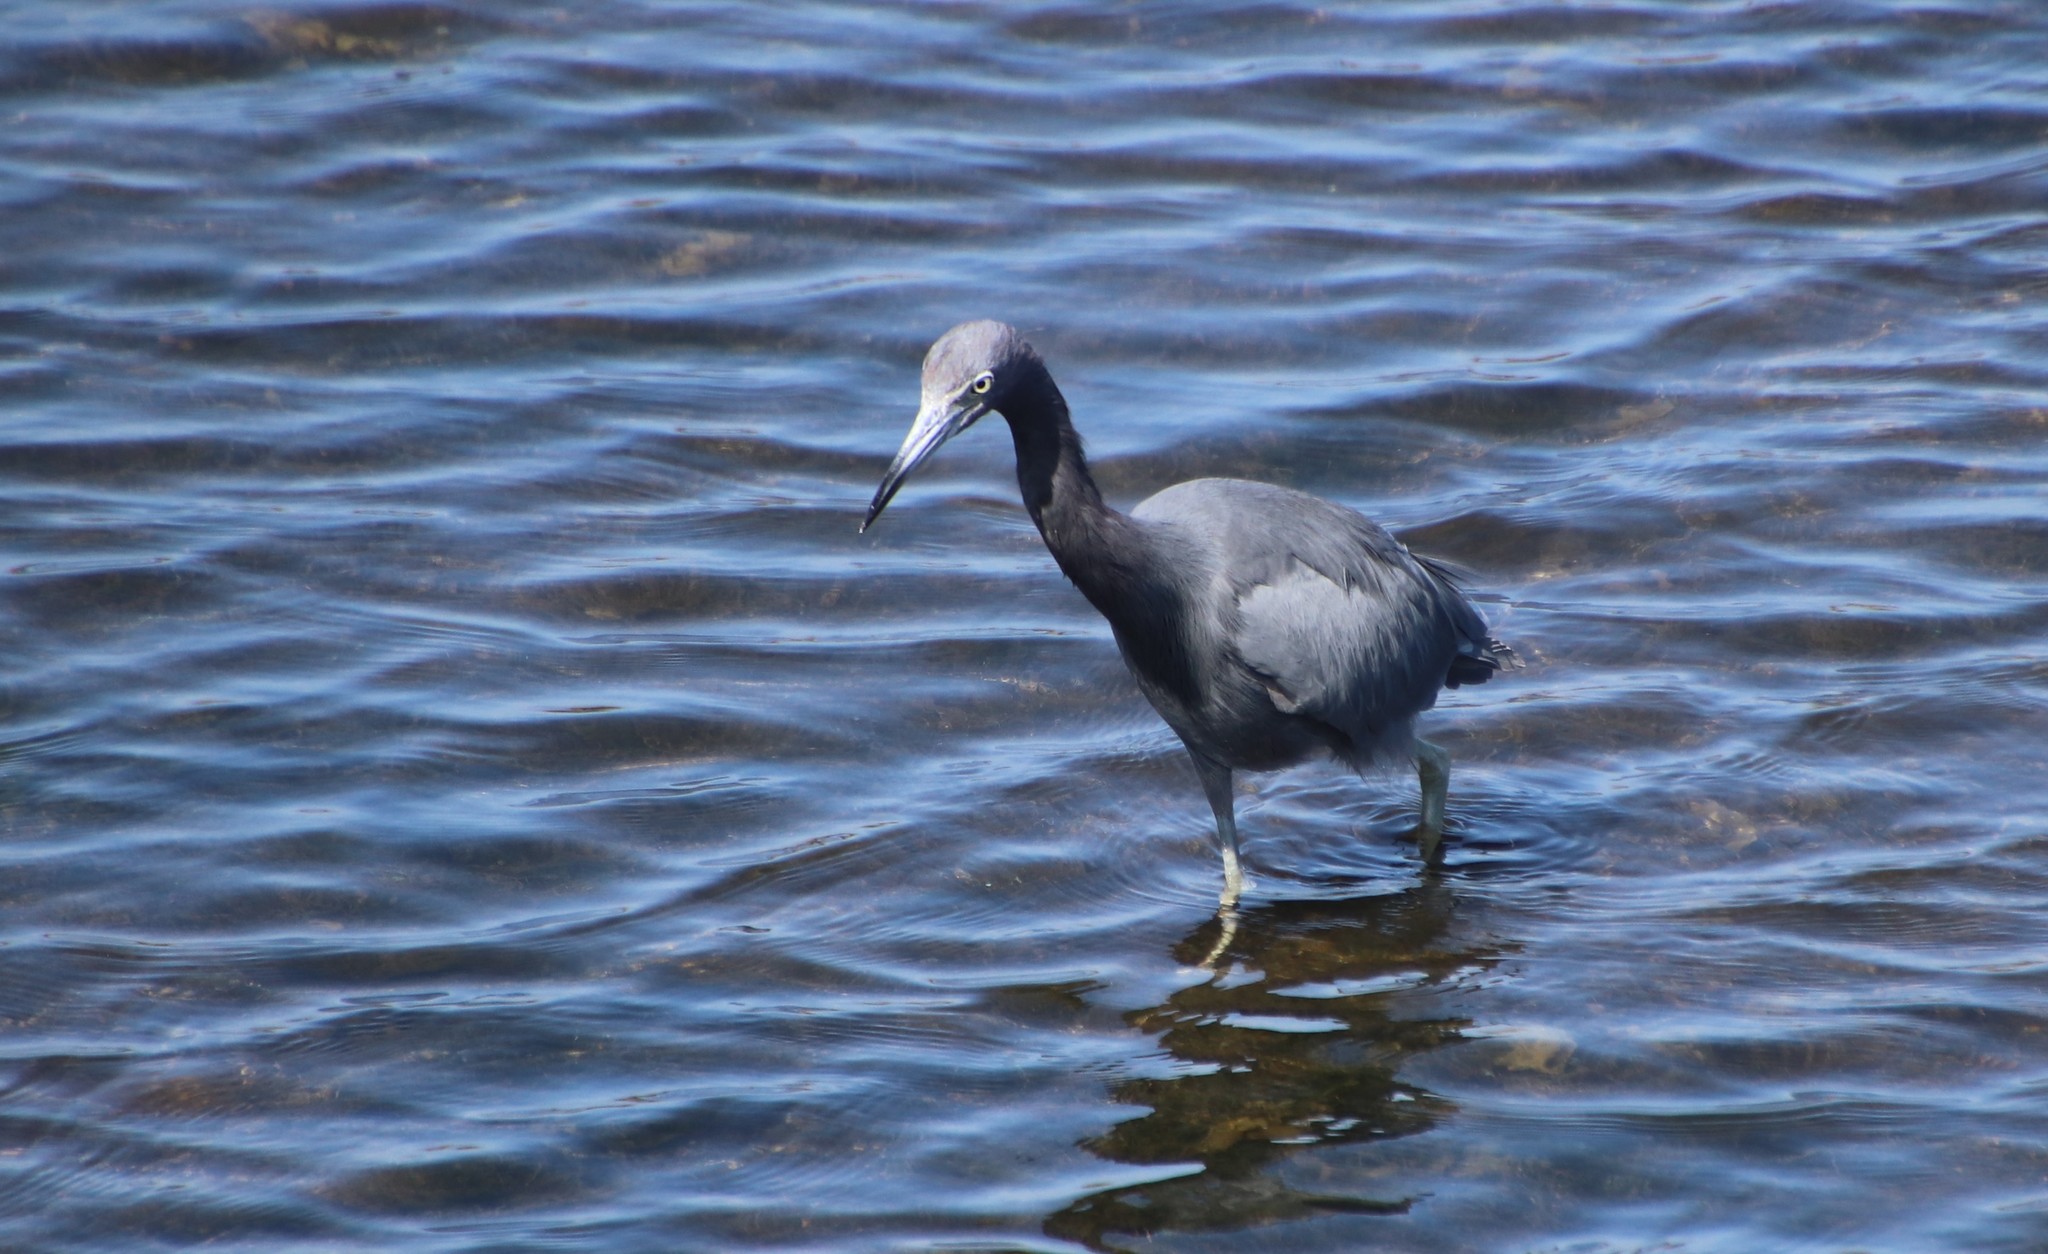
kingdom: Animalia
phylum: Chordata
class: Aves
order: Pelecaniformes
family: Ardeidae
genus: Egretta
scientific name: Egretta caerulea
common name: Little blue heron
